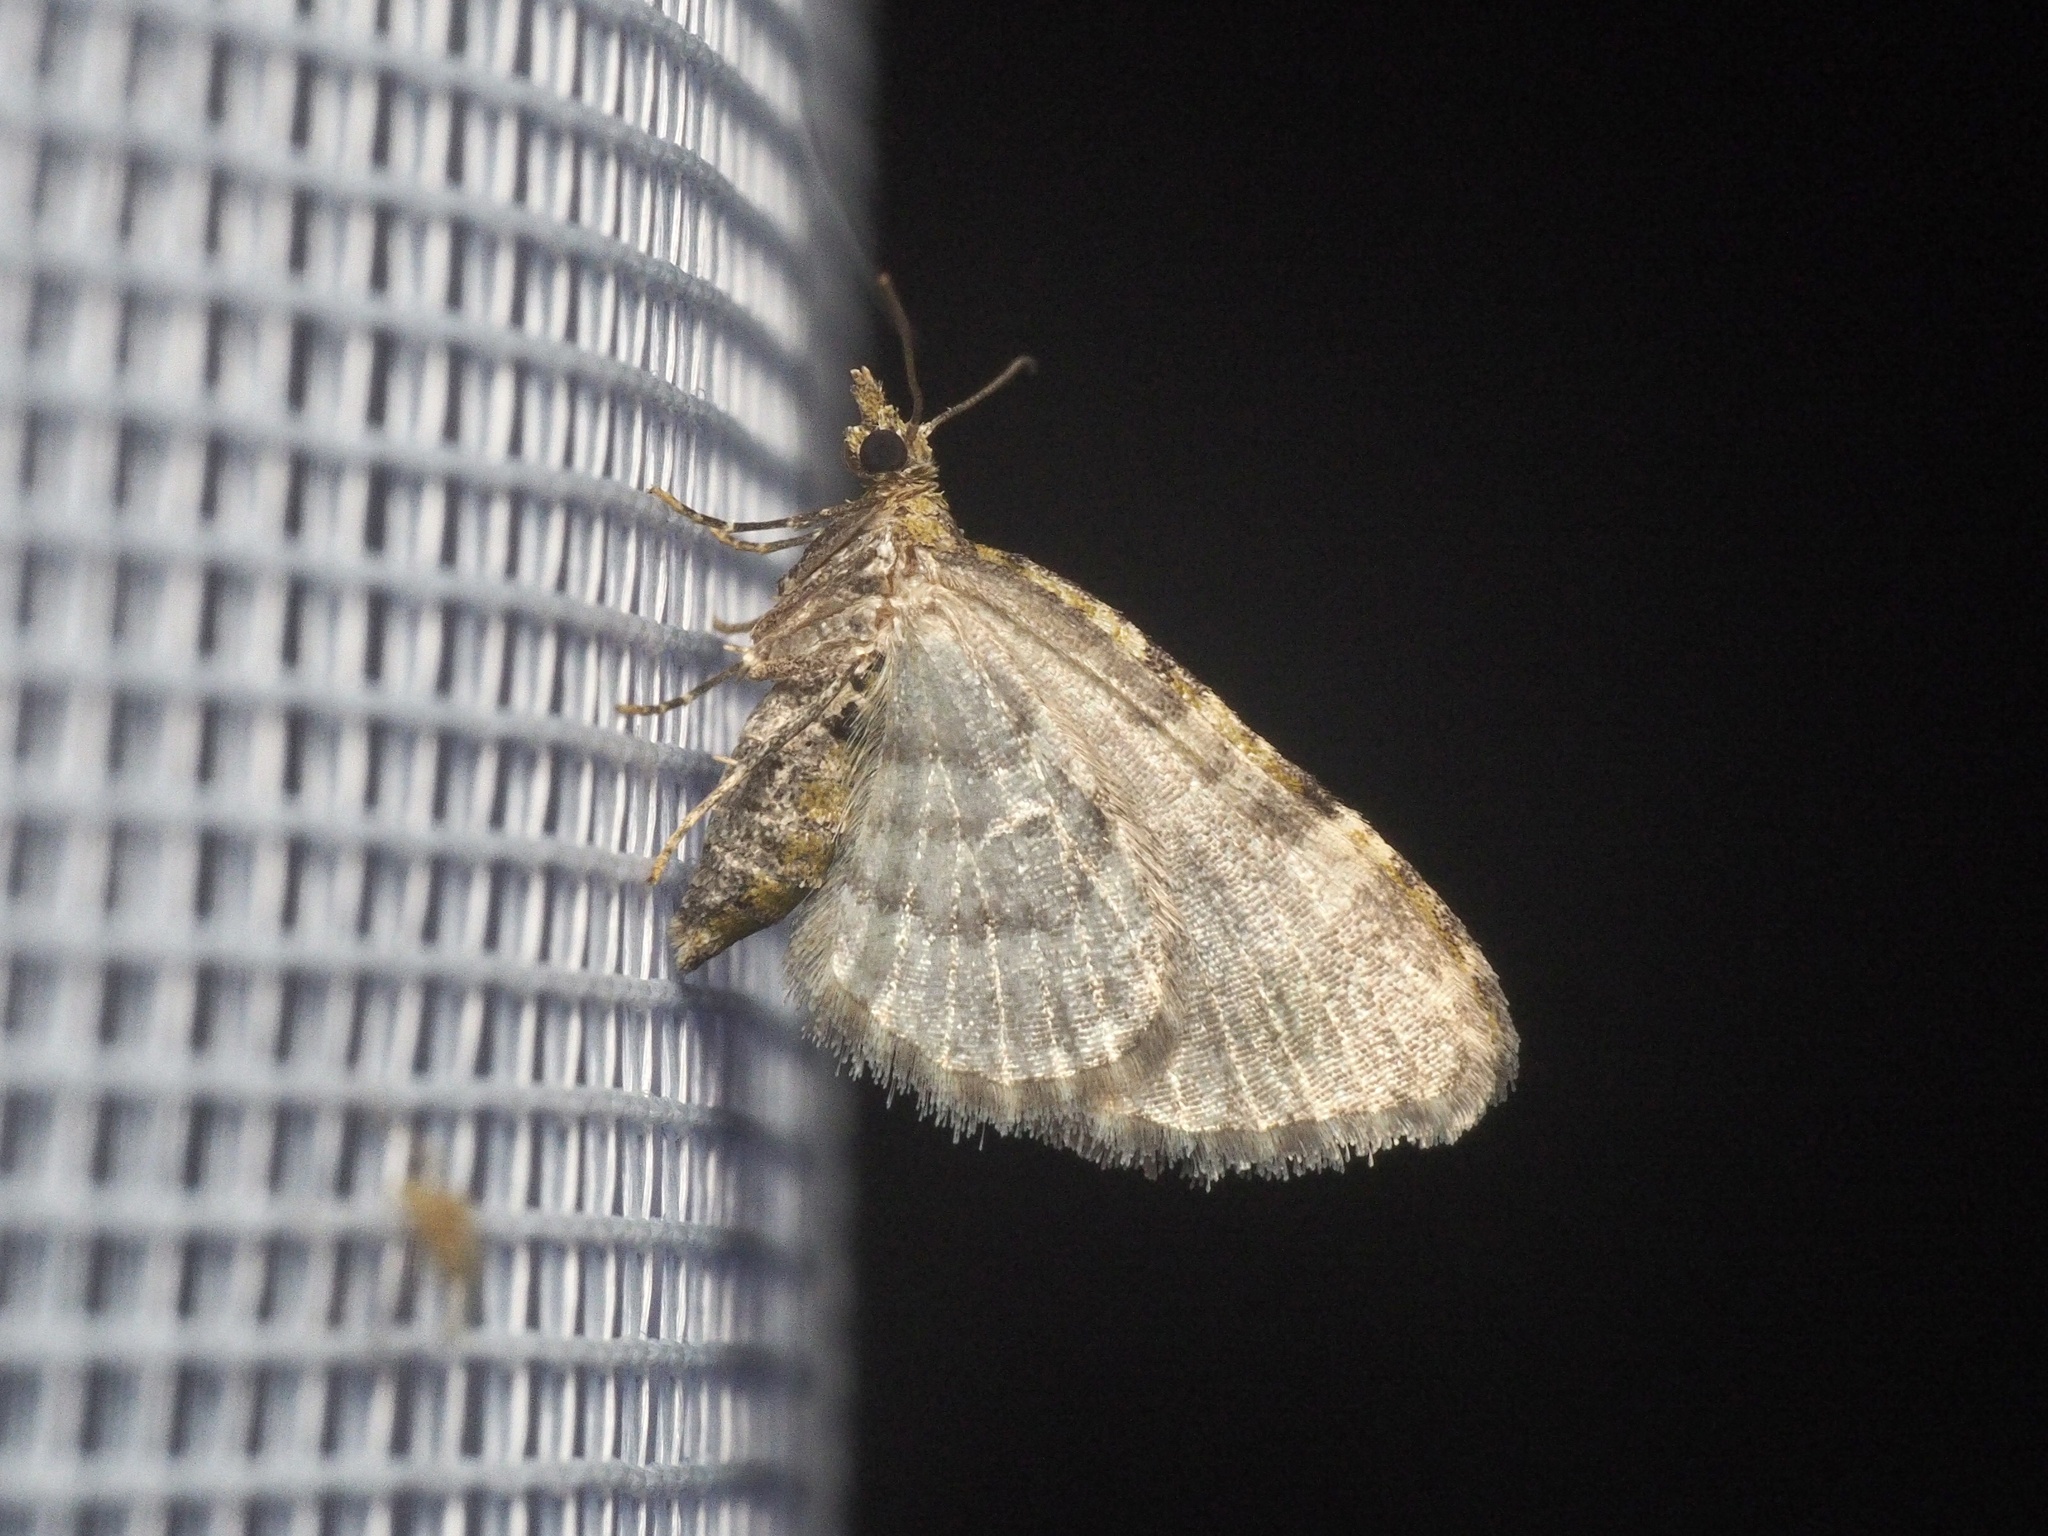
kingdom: Animalia
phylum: Arthropoda
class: Insecta
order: Lepidoptera
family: Geometridae
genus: Chloroclystis
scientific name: Chloroclystis v-ata
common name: V-pug
